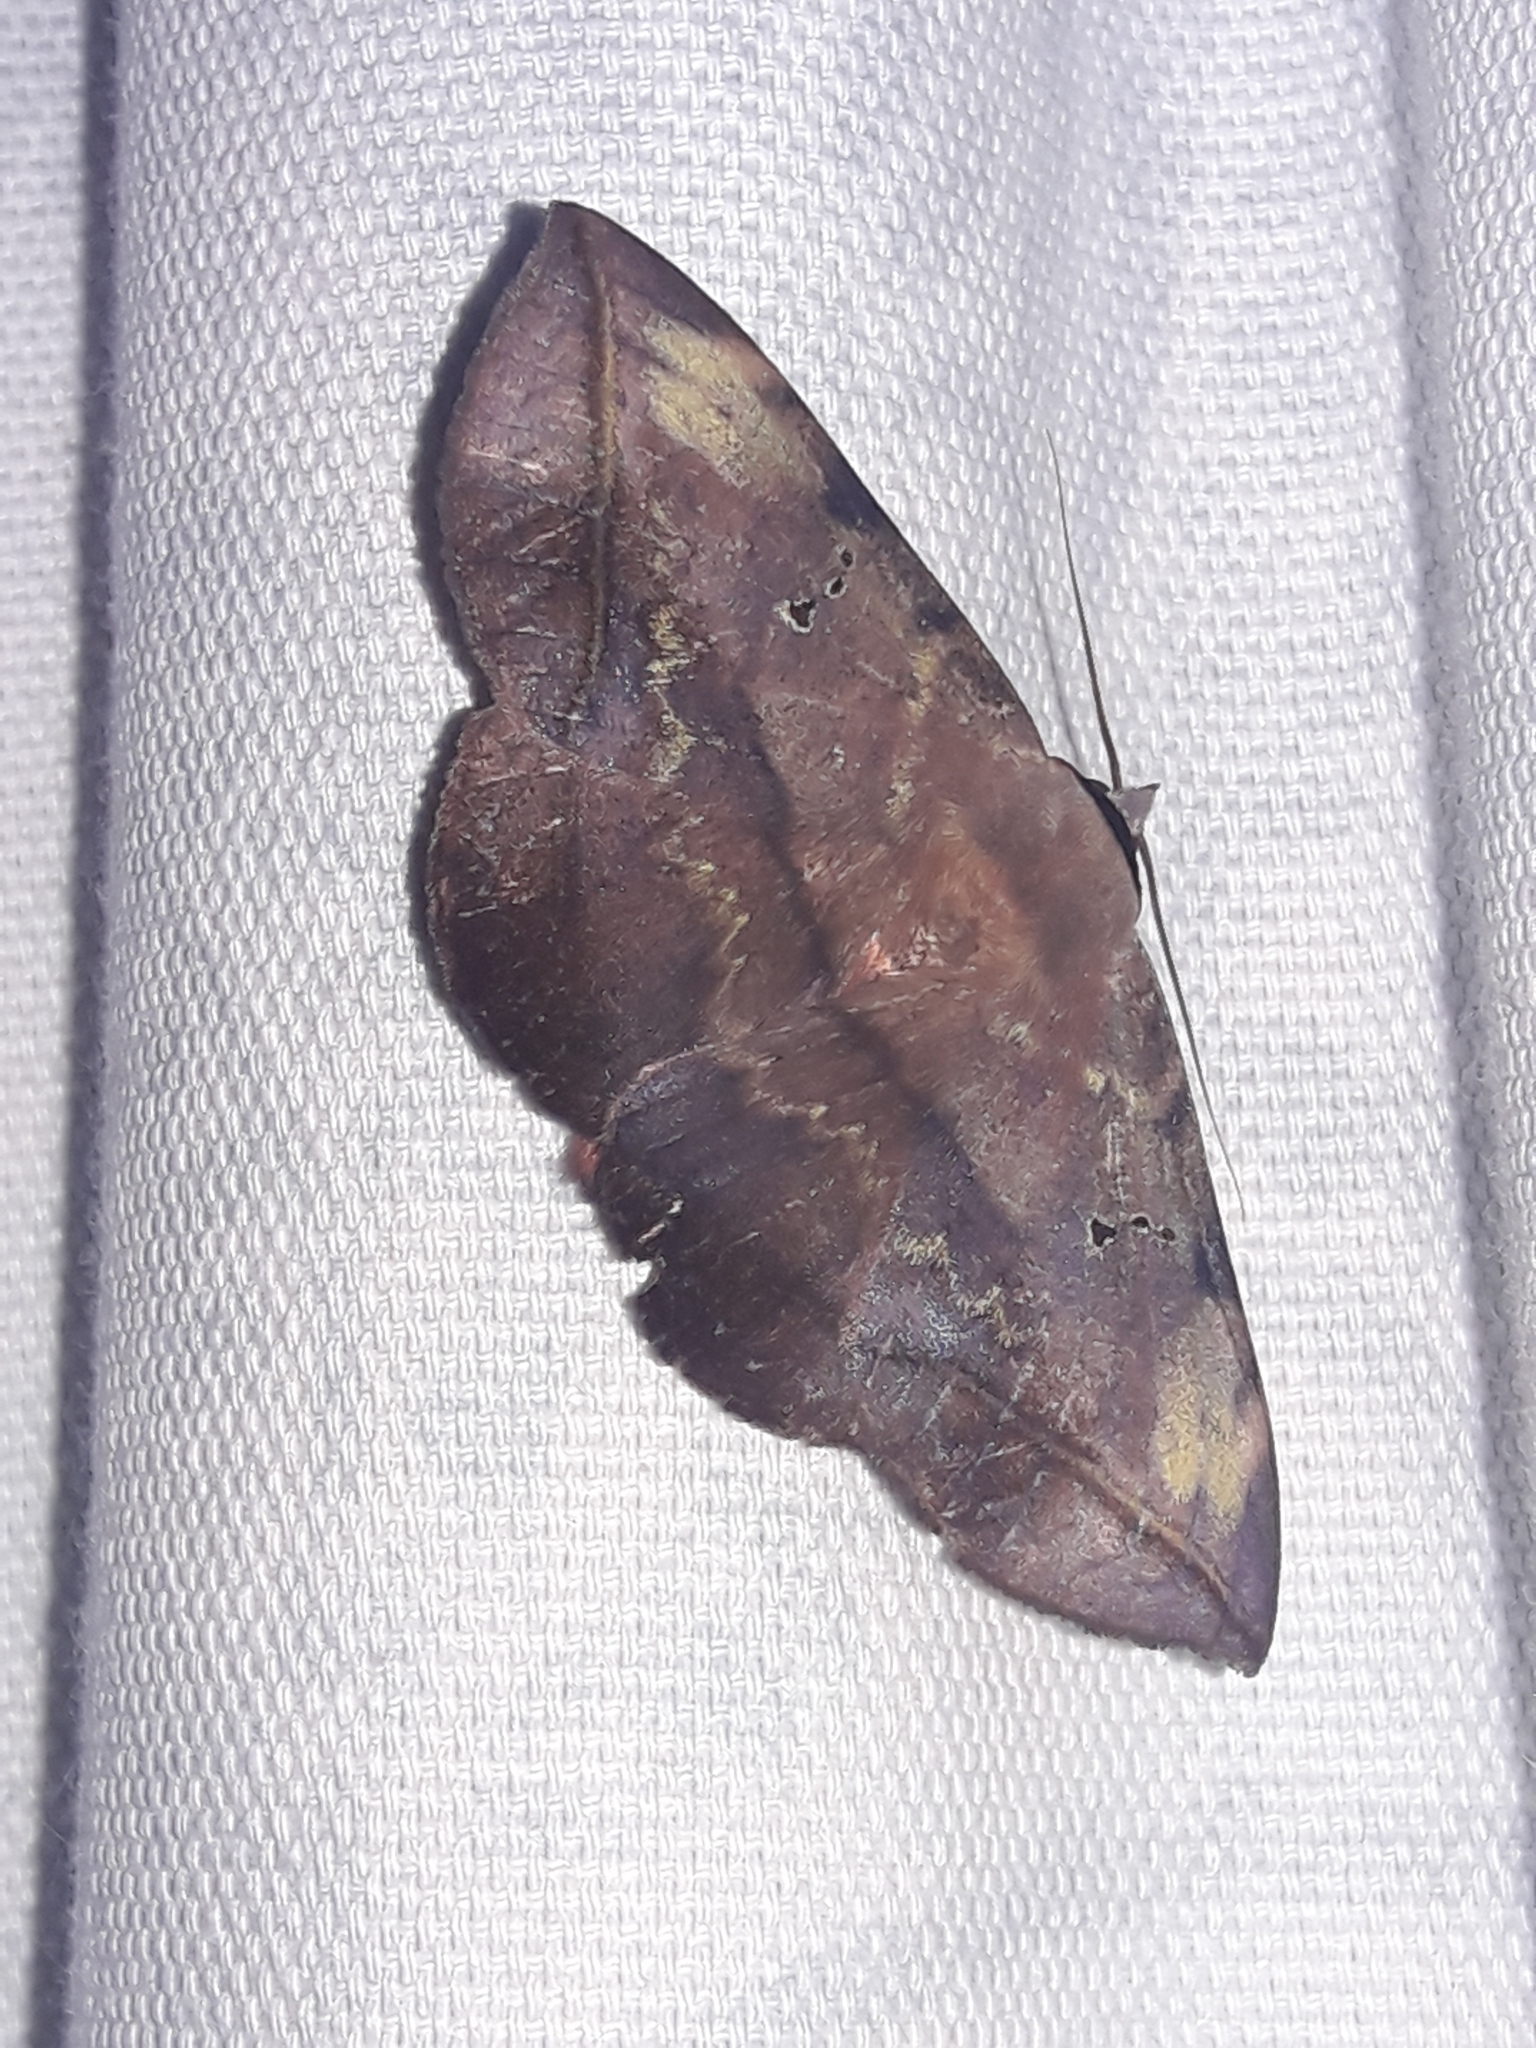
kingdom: Animalia
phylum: Arthropoda
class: Insecta
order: Lepidoptera
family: Erebidae
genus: Hypopyra
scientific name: Hypopyra capensis
